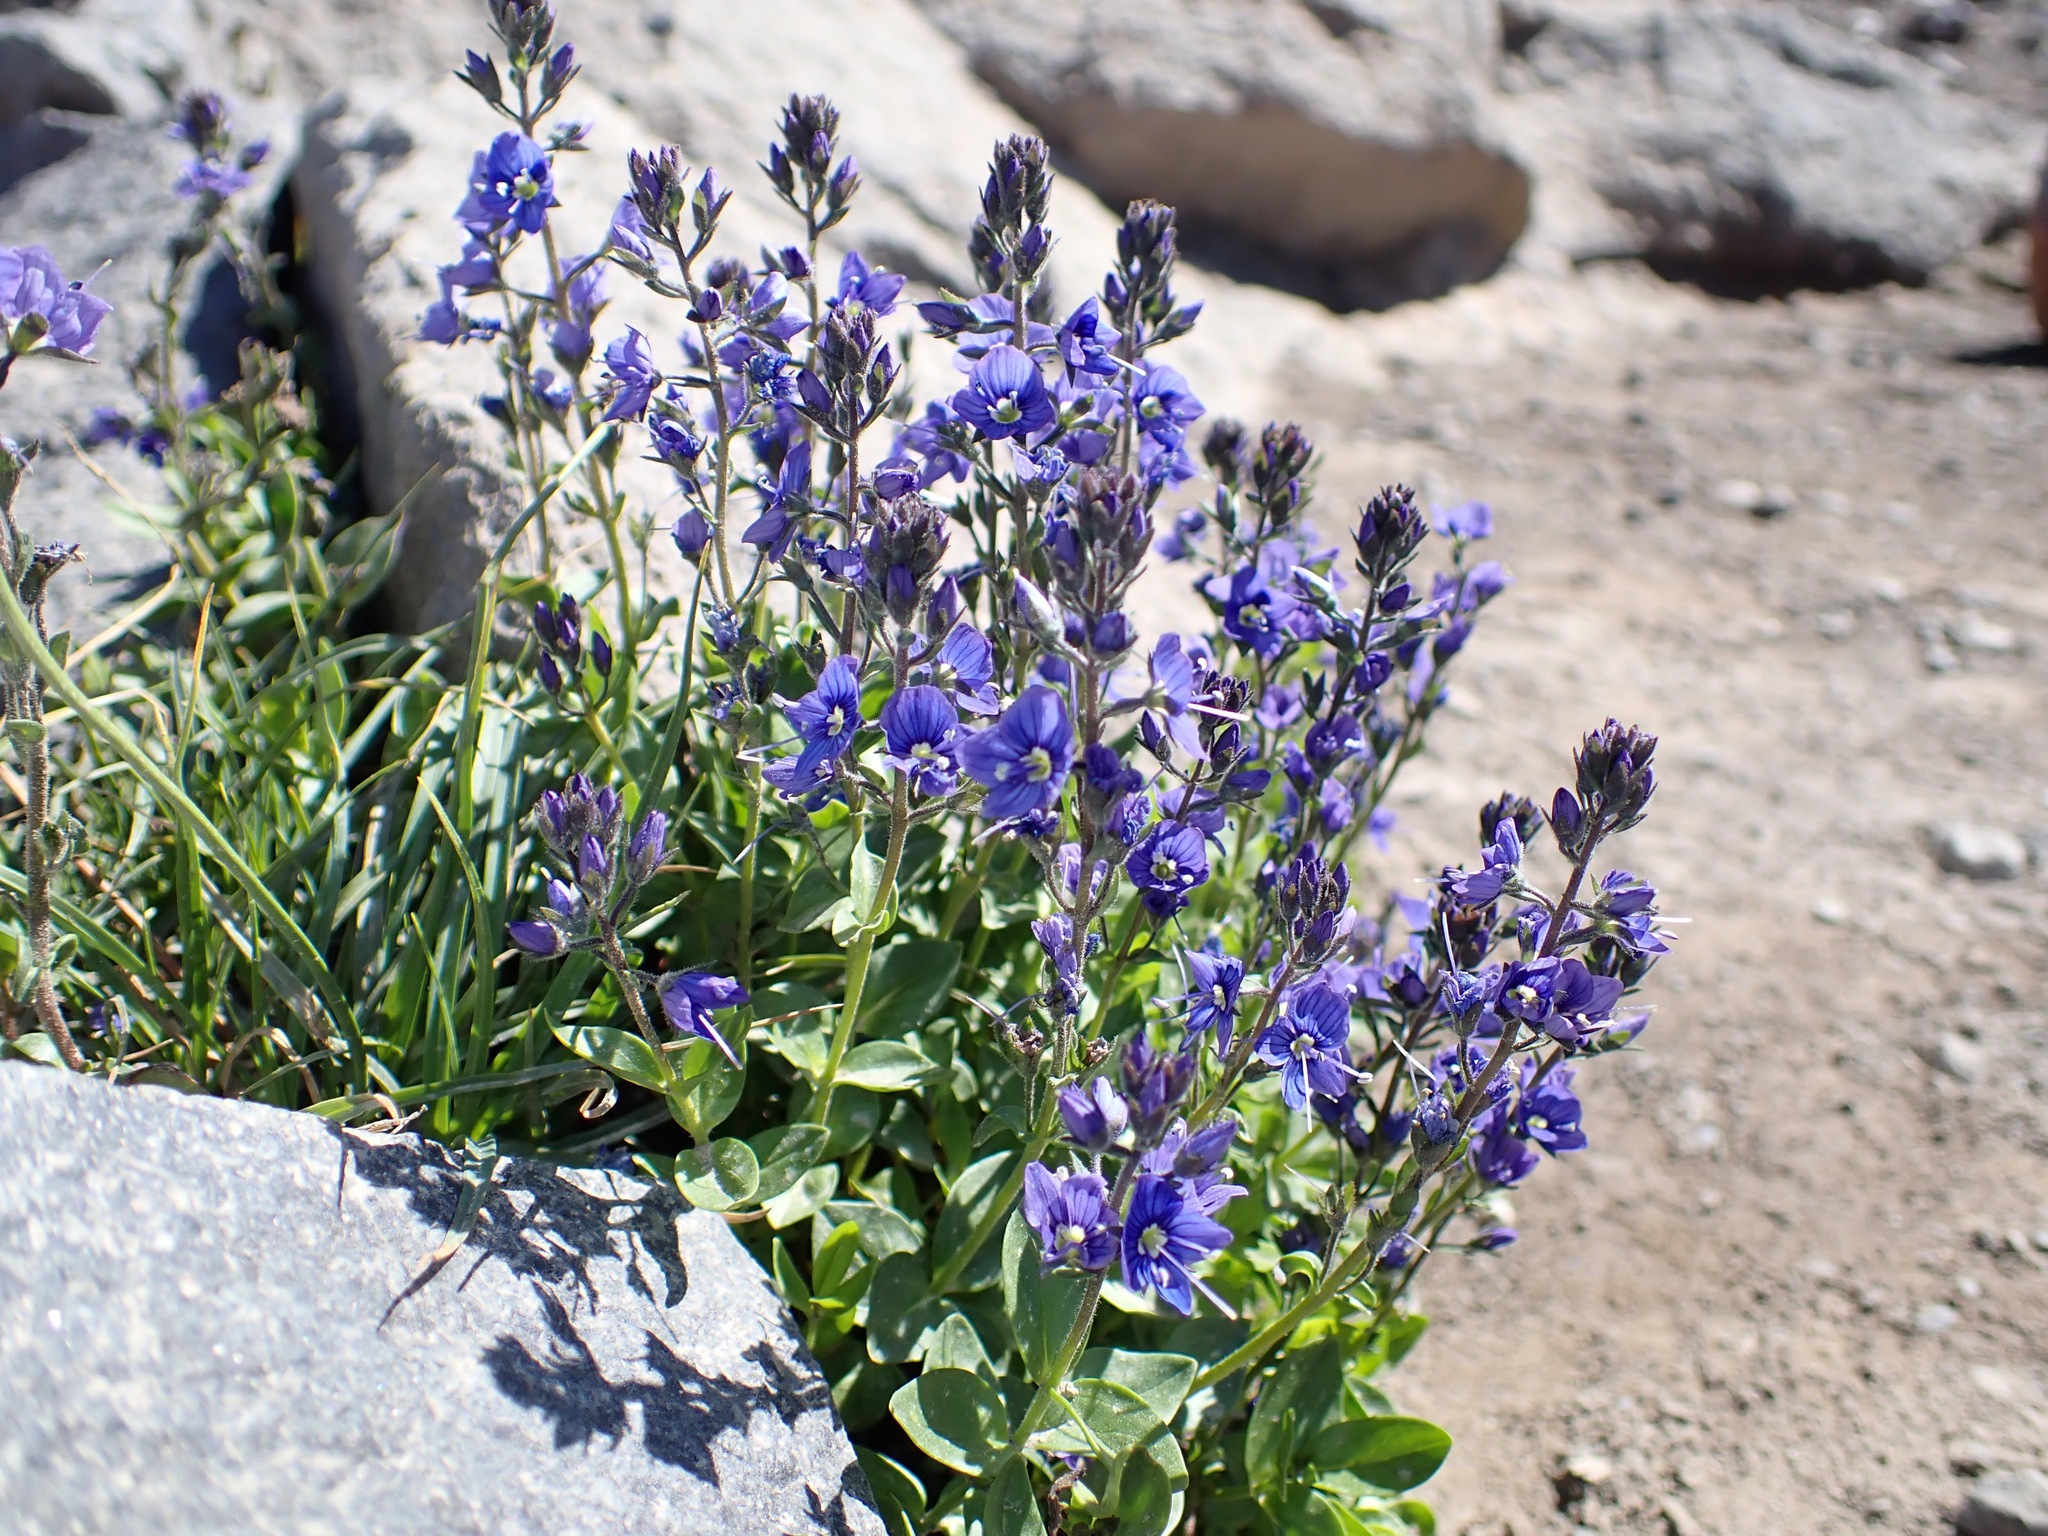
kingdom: Plantae
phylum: Tracheophyta
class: Magnoliopsida
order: Lamiales
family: Plantaginaceae
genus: Veronica
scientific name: Veronica cusickii
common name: Cusick's speedwell
